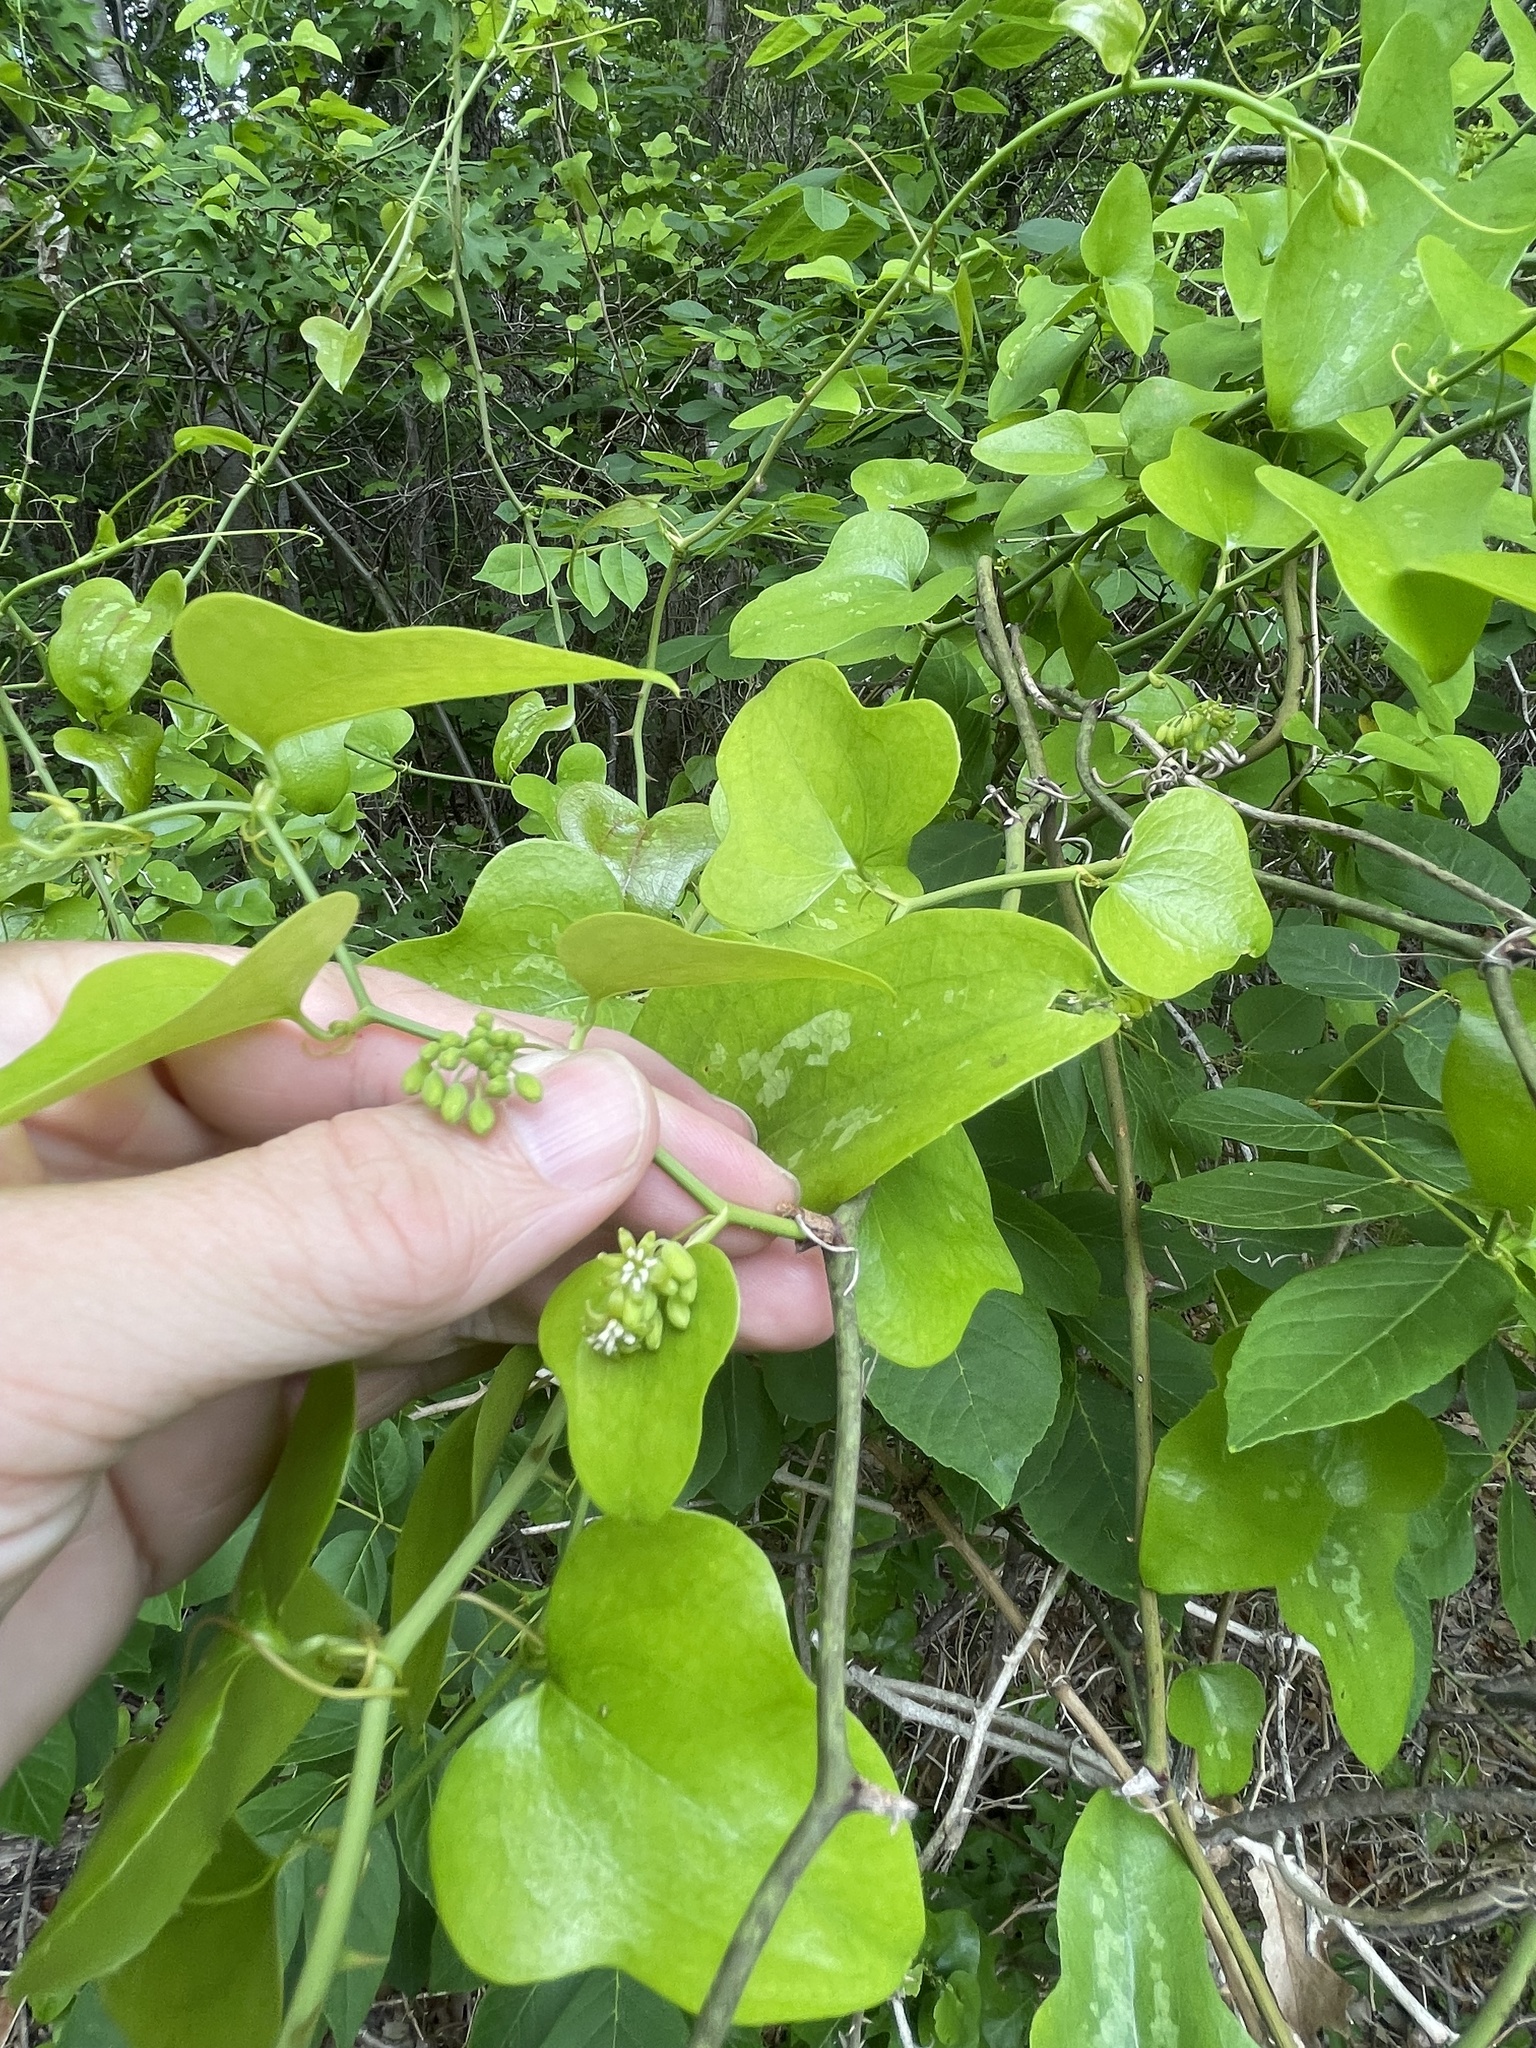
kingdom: Plantae
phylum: Tracheophyta
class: Liliopsida
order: Liliales
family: Smilacaceae
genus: Smilax
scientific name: Smilax bona-nox
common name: Catbrier
